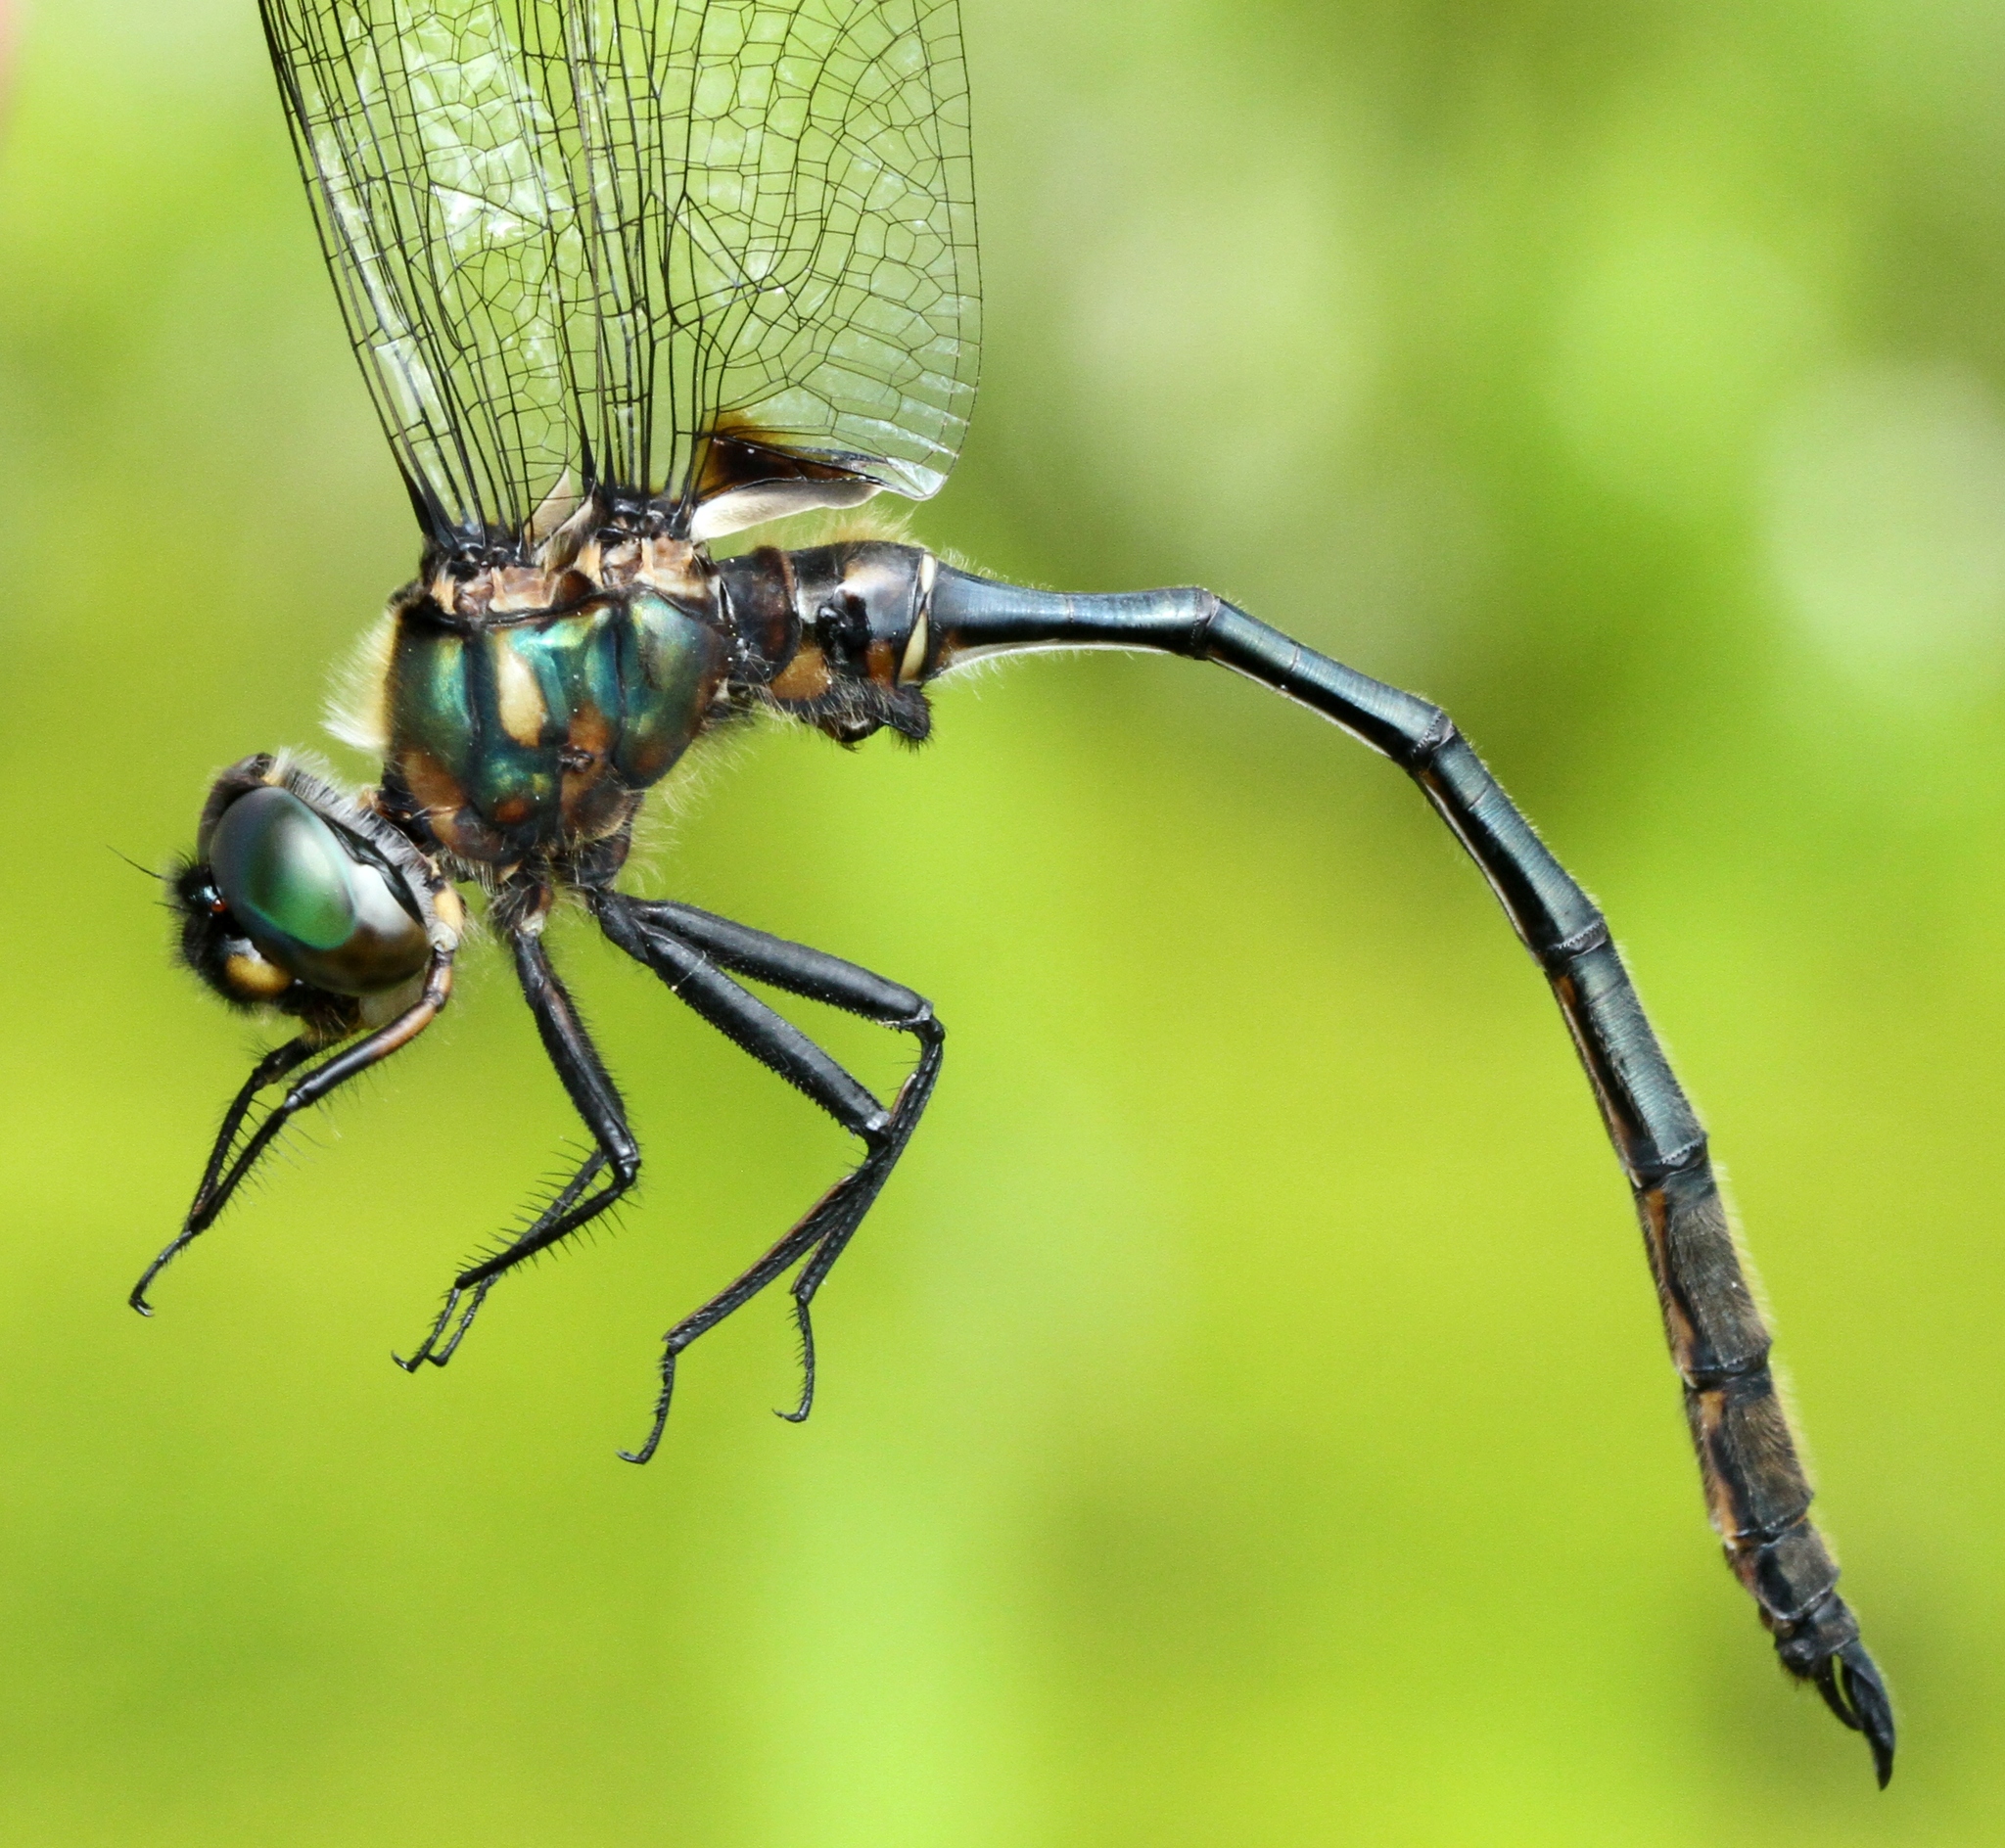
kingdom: Animalia
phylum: Arthropoda
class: Insecta
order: Odonata
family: Corduliidae
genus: Somatochlora
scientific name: Somatochlora franklini
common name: Delicate emerald
